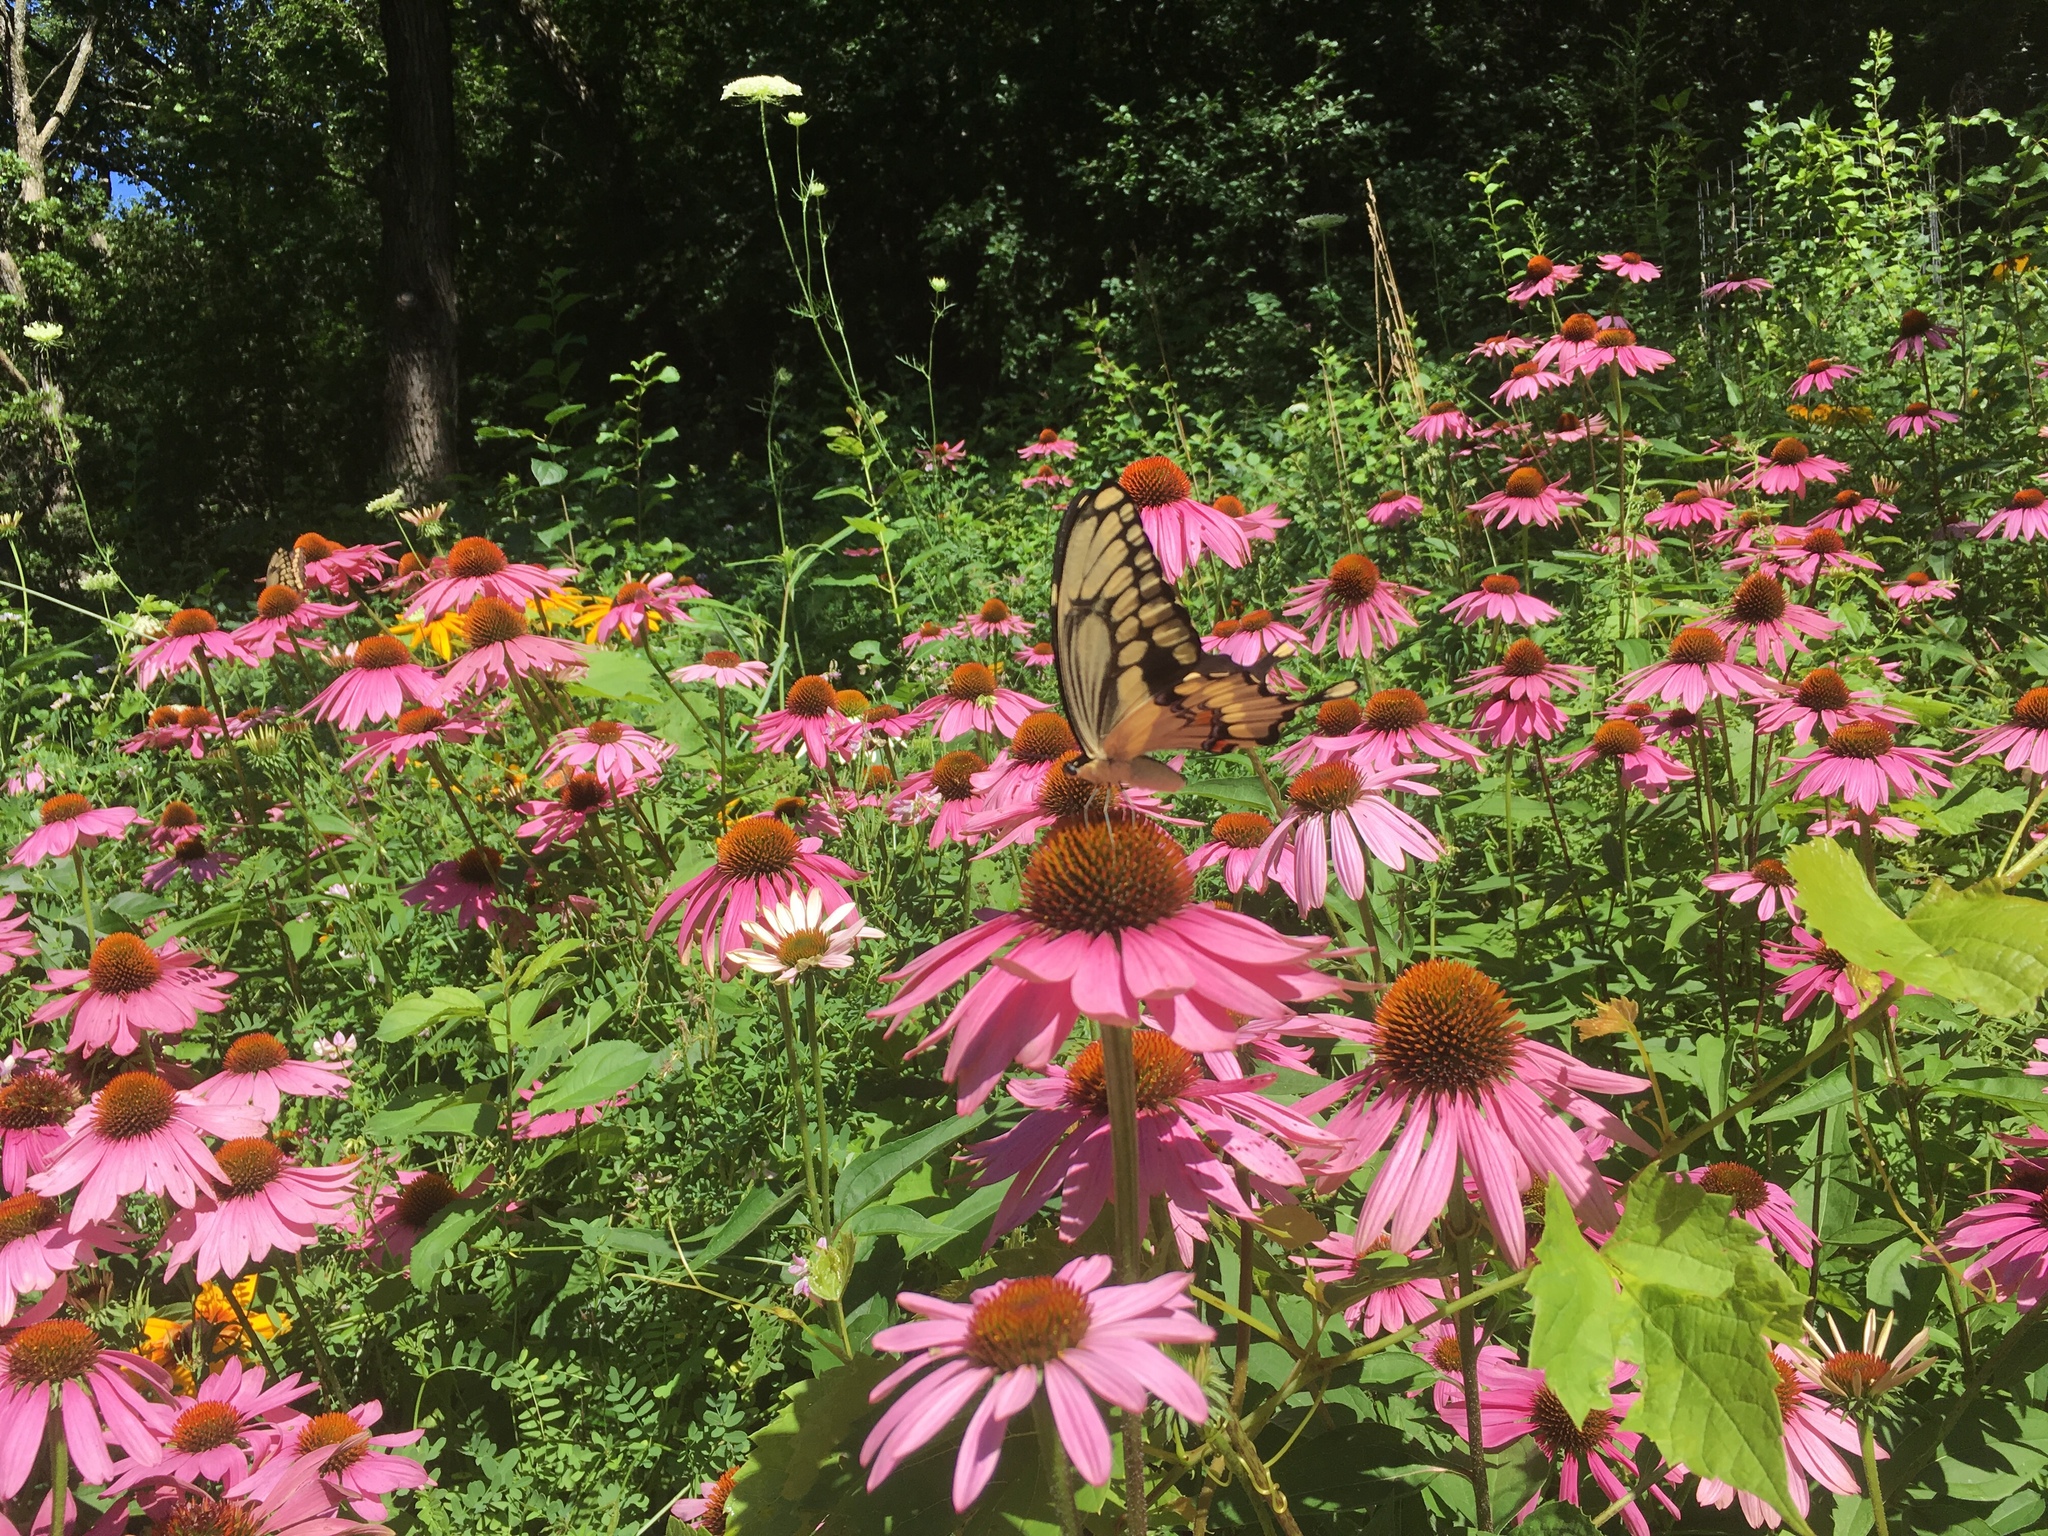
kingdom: Animalia
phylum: Arthropoda
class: Insecta
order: Lepidoptera
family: Papilionidae
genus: Papilio
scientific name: Papilio cresphontes
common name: Giant swallowtail
